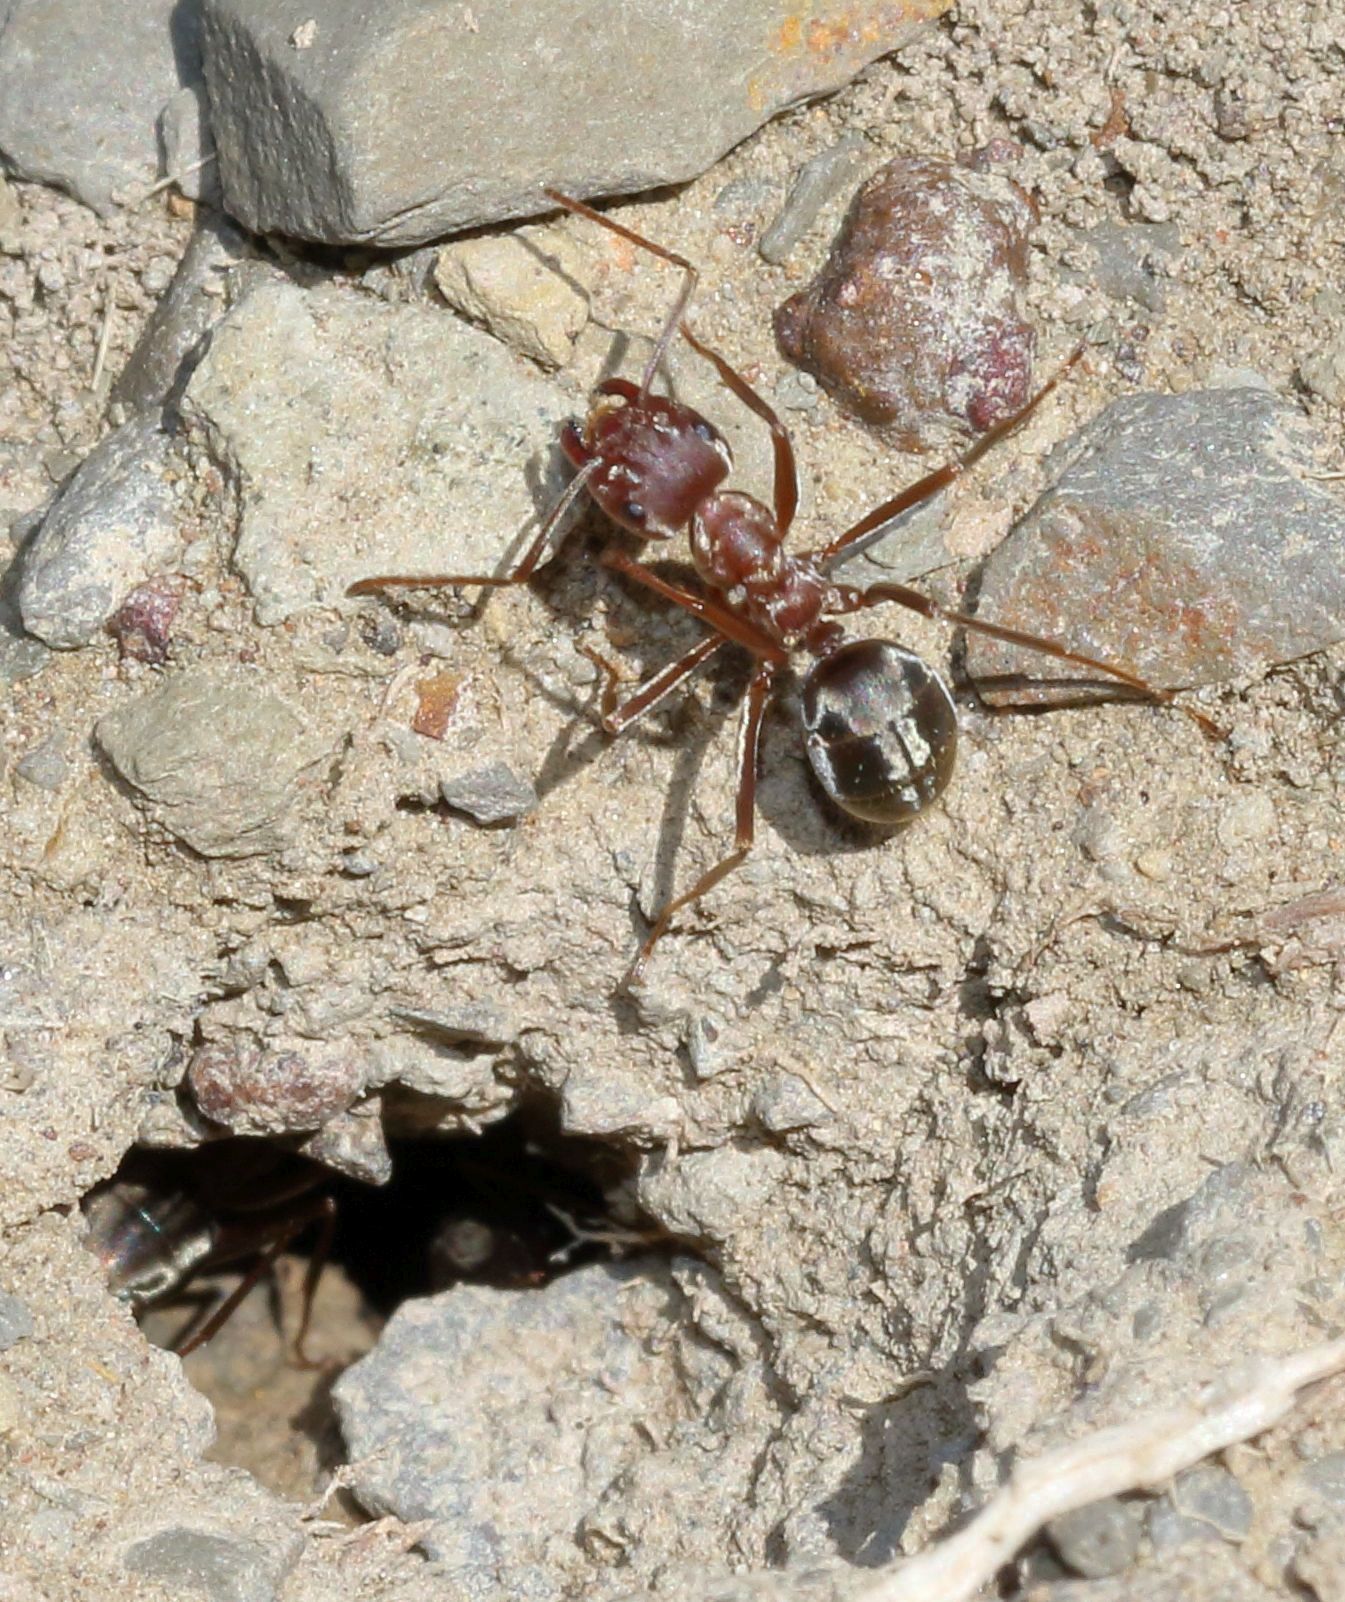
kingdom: Animalia
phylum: Arthropoda
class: Insecta
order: Hymenoptera
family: Formicidae
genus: Anoplolepis
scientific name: Anoplolepis custodiens
